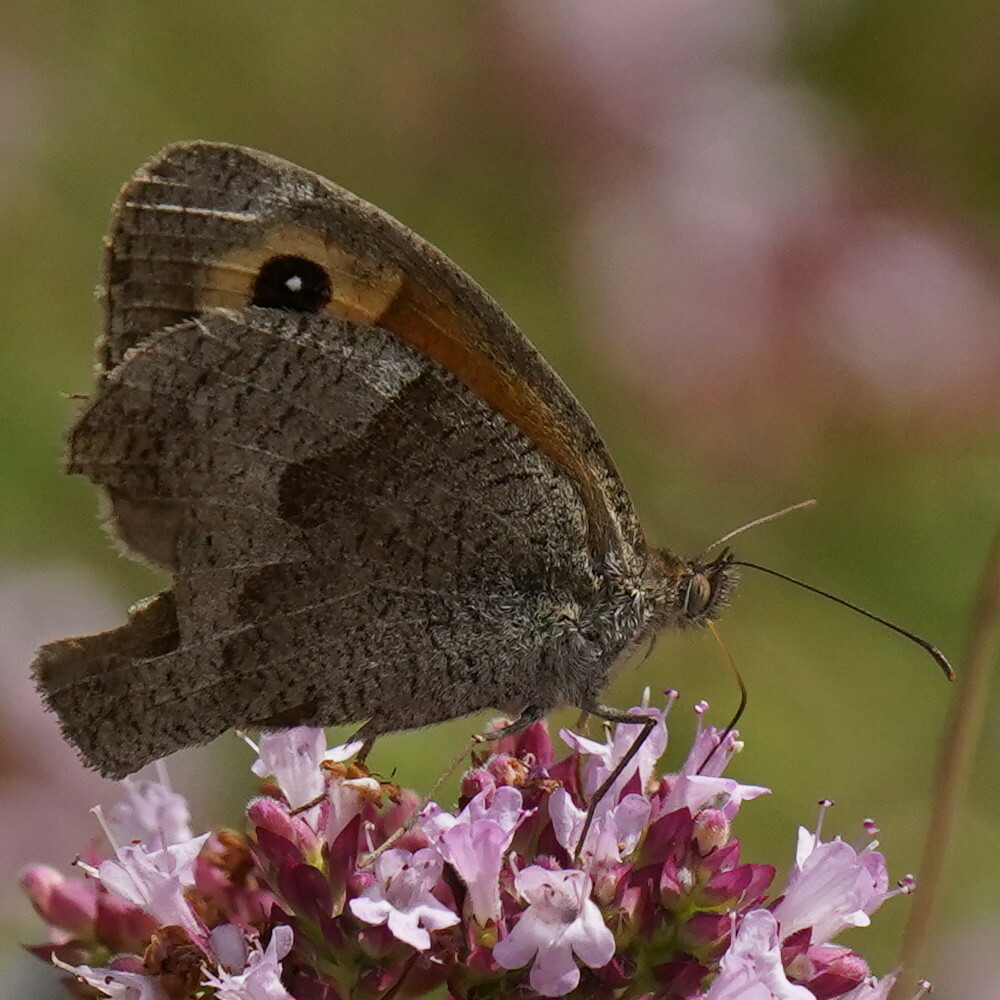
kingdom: Animalia
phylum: Arthropoda
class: Insecta
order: Lepidoptera
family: Nymphalidae
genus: Maniola
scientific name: Maniola jurtina
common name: Meadow brown
